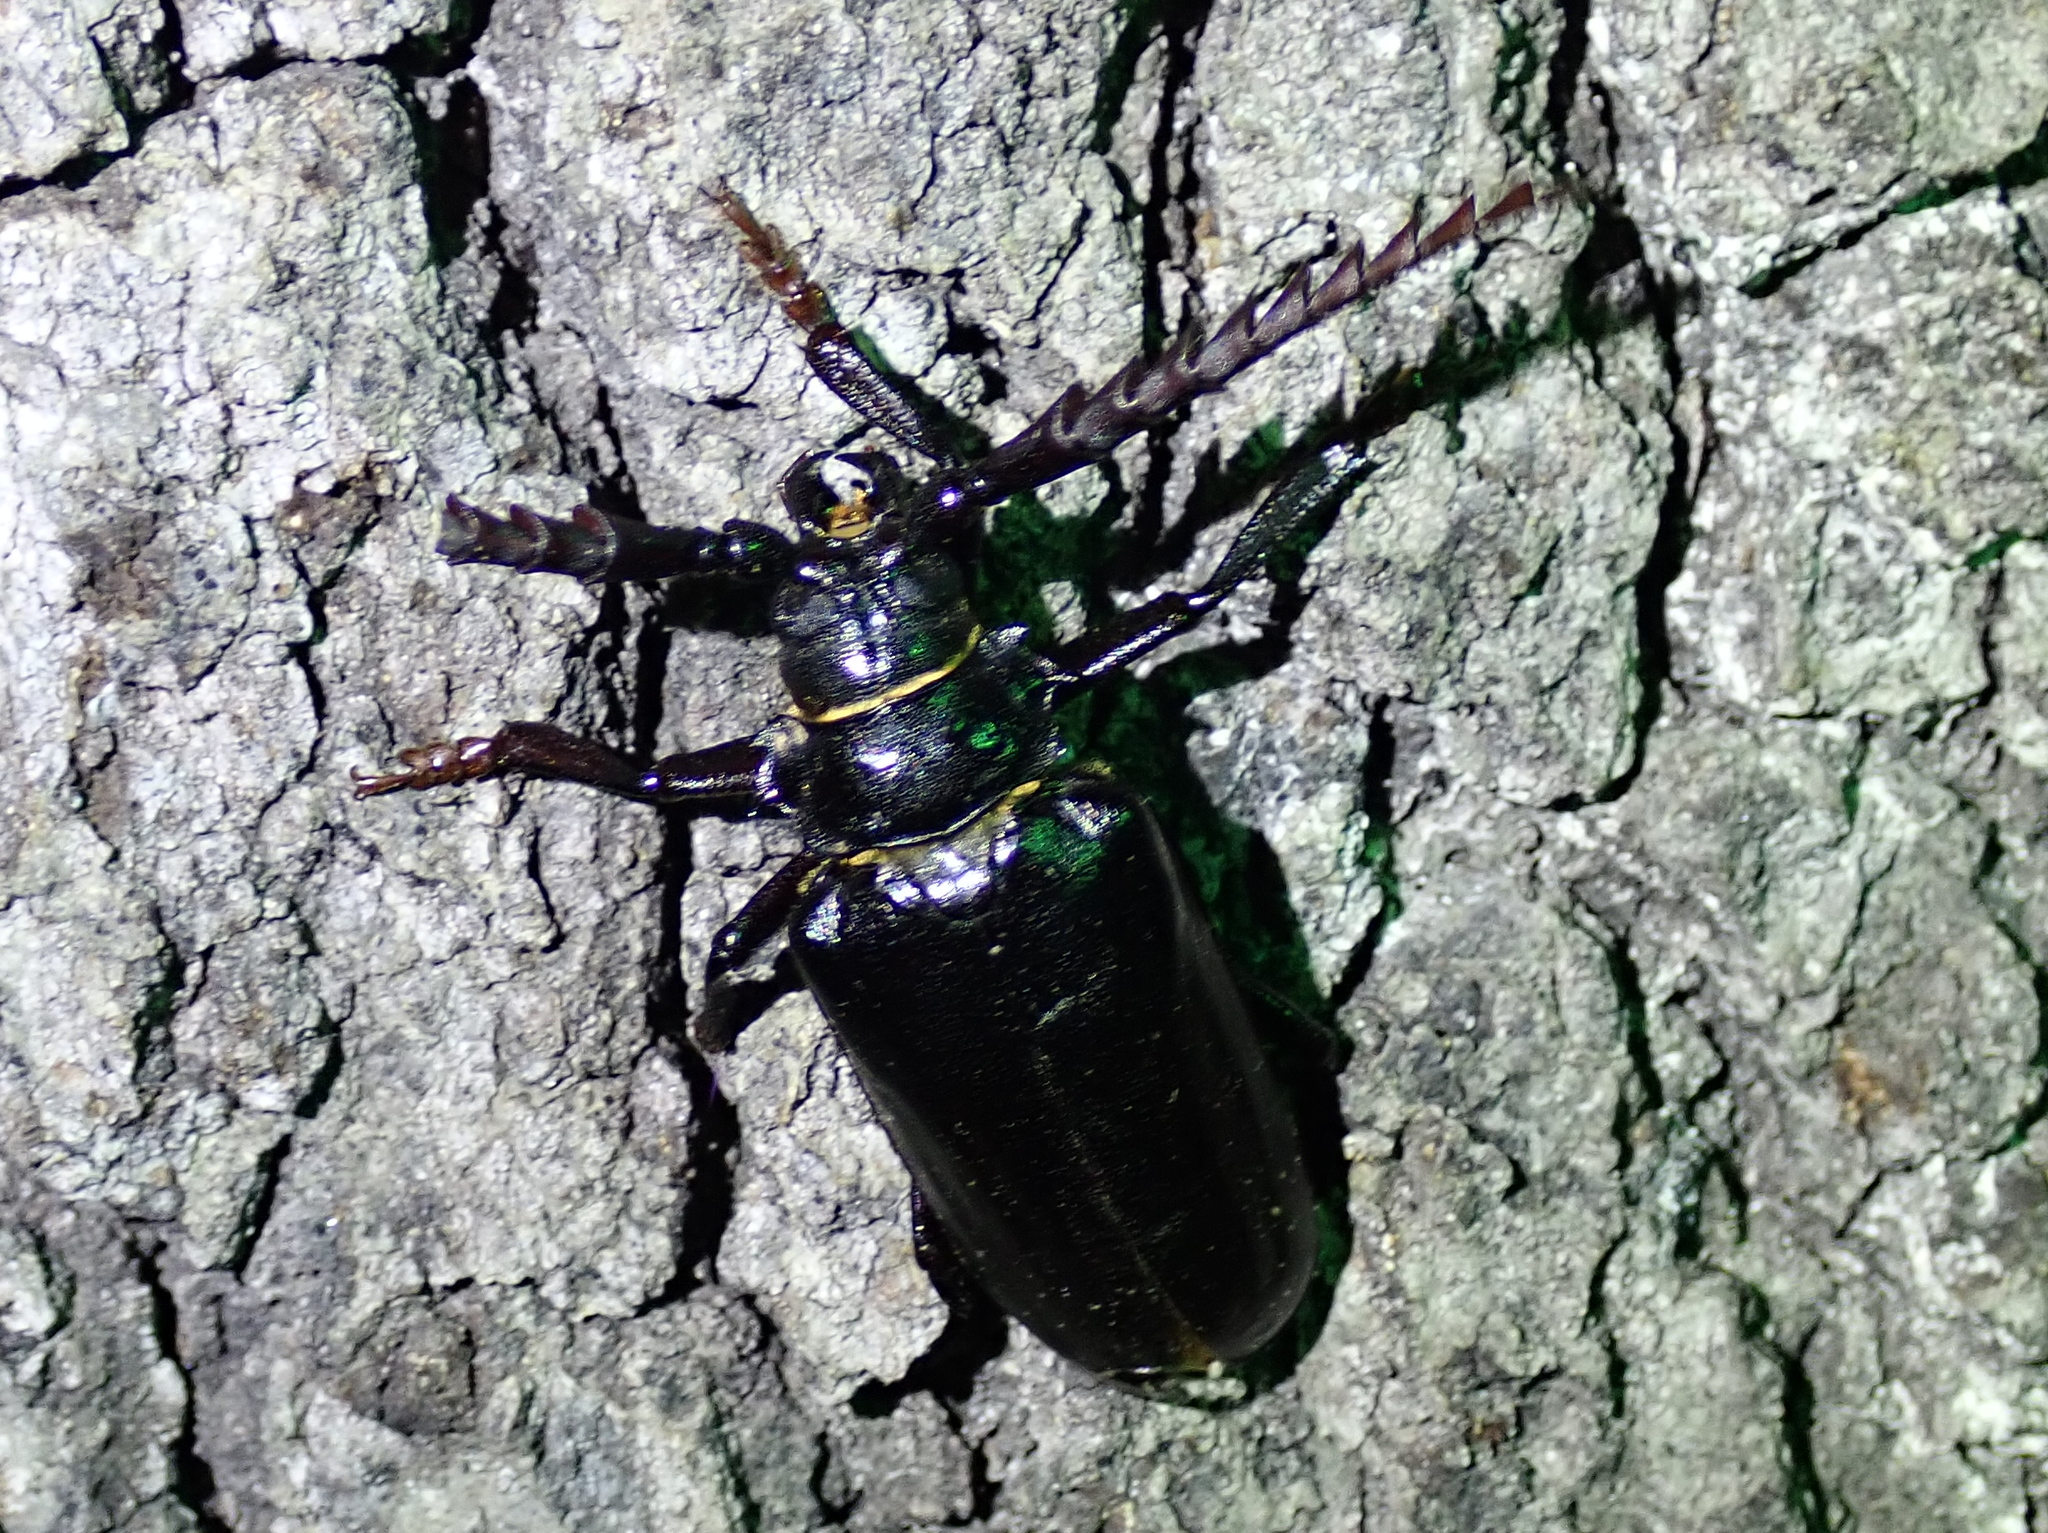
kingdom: Animalia
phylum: Arthropoda
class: Insecta
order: Coleoptera
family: Cerambycidae
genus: Prionus
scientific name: Prionus heroicus
